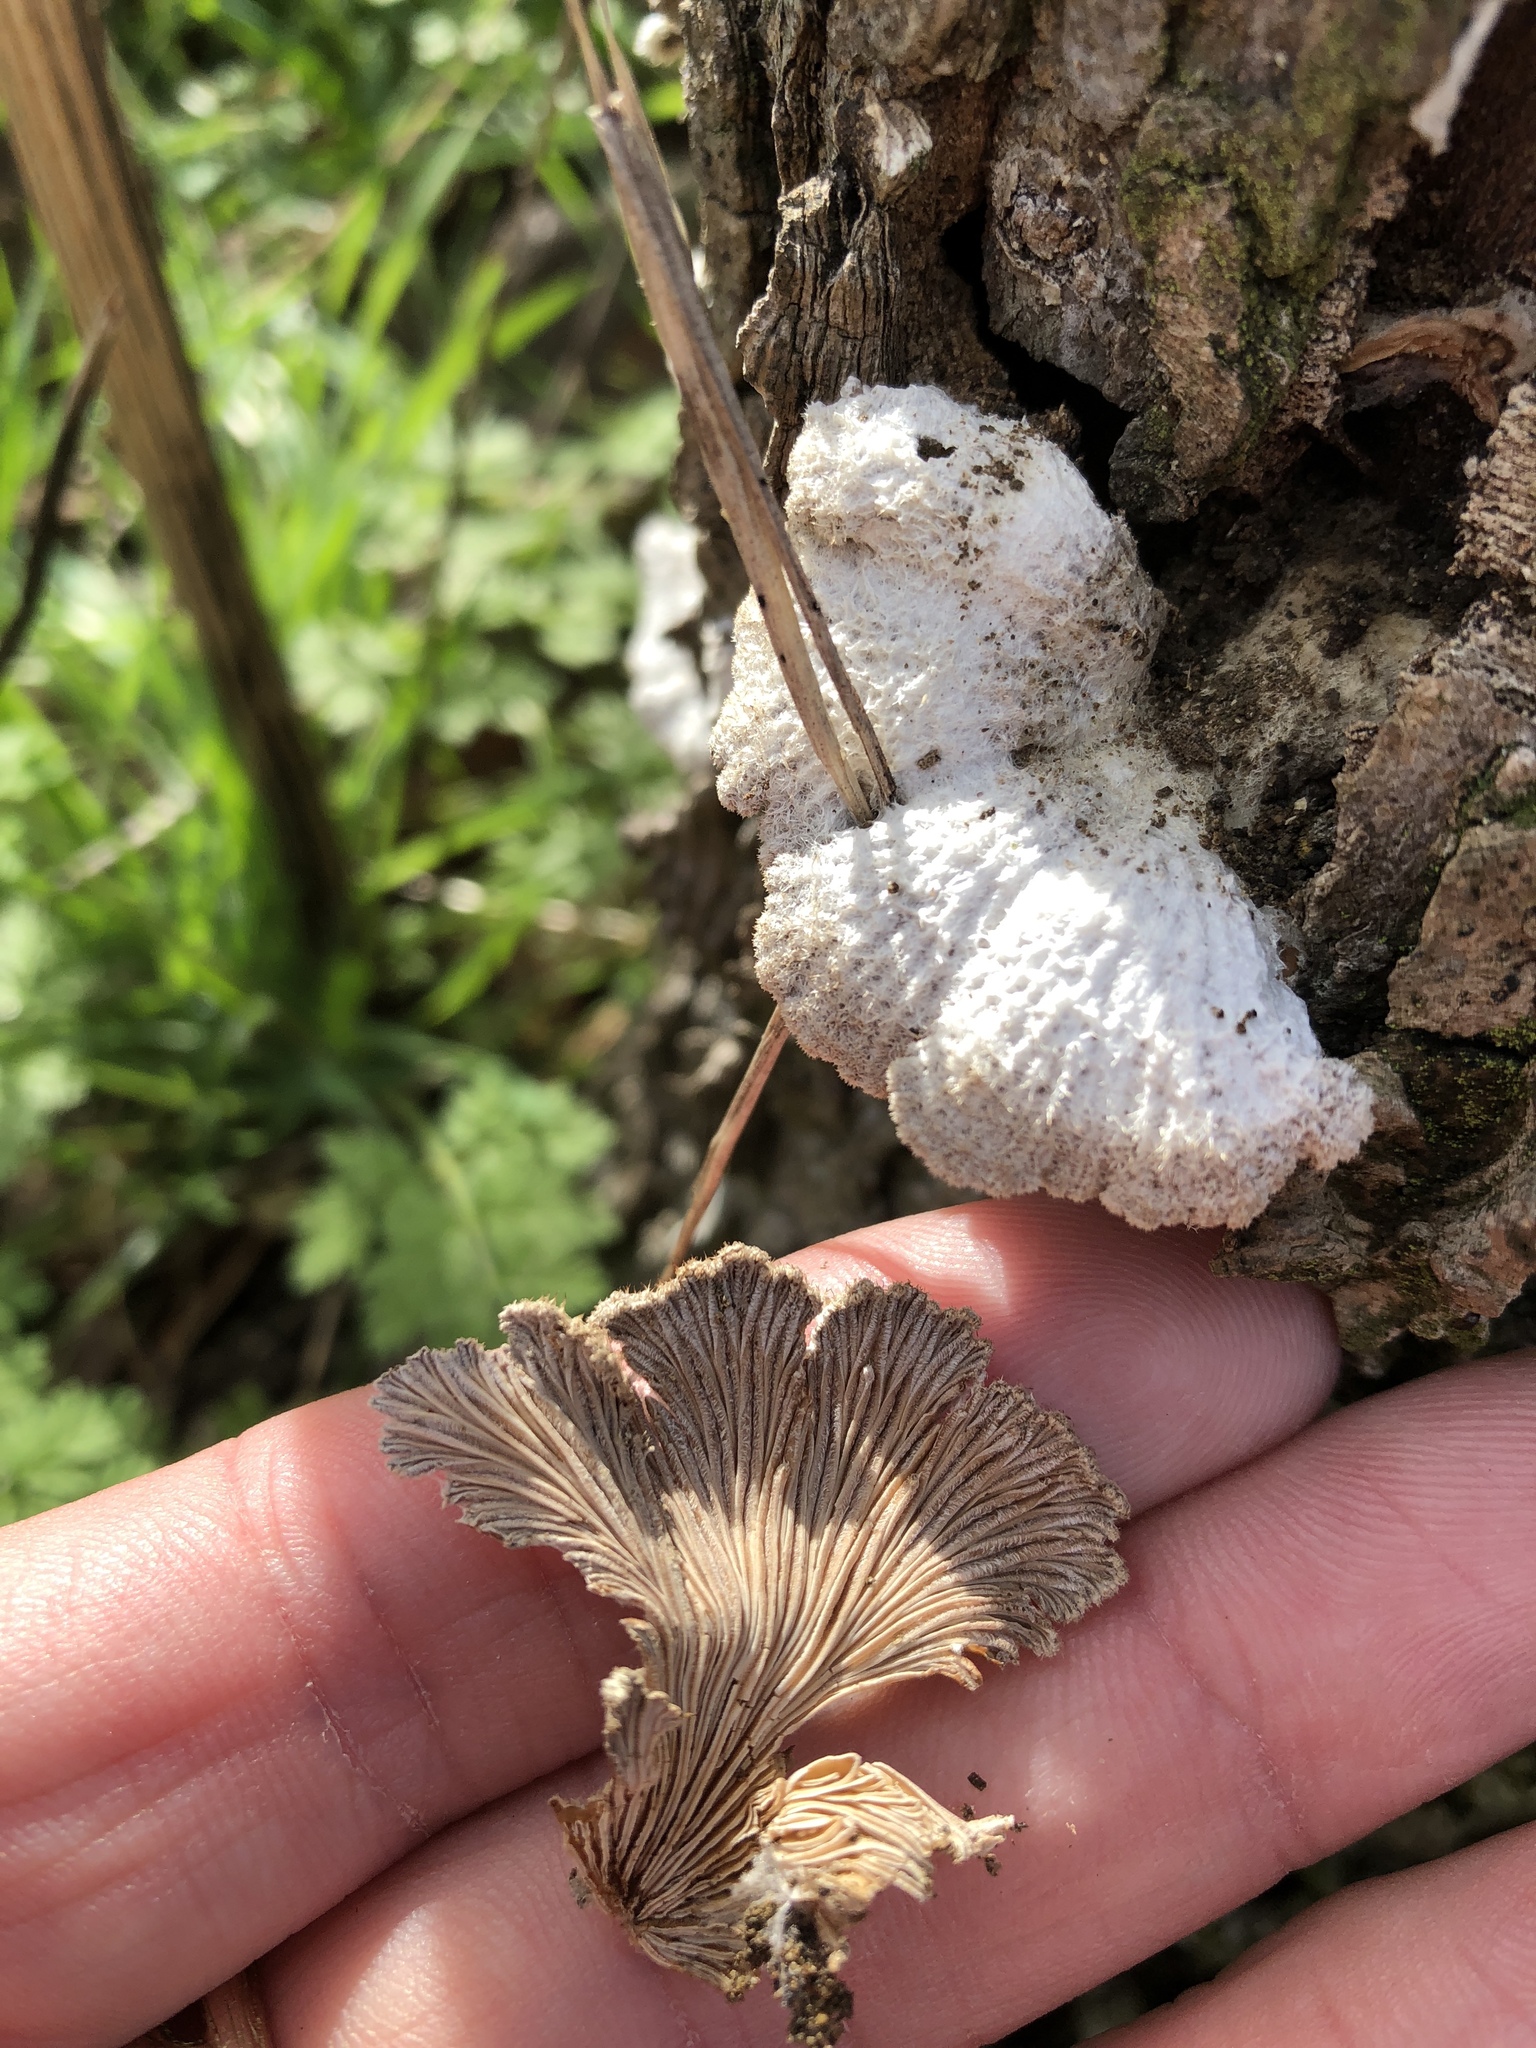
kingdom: Fungi
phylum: Basidiomycota
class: Agaricomycetes
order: Agaricales
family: Schizophyllaceae
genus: Schizophyllum
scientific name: Schizophyllum commune
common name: Common porecrust
